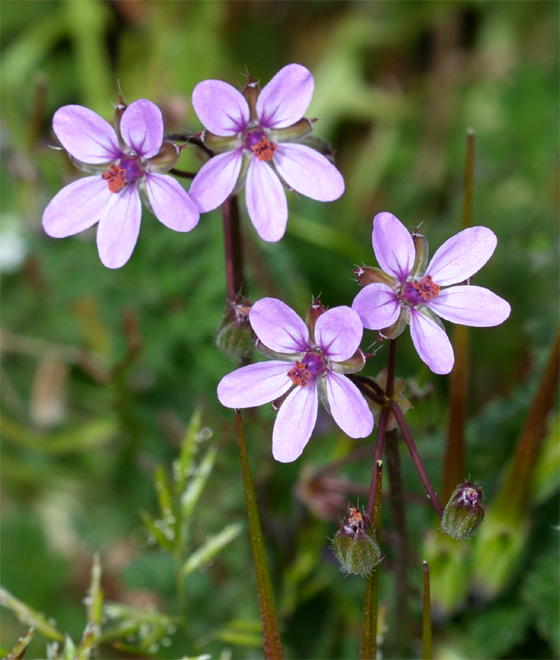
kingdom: Plantae
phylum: Tracheophyta
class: Magnoliopsida
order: Geraniales
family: Geraniaceae
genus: Erodium
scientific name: Erodium cicutarium
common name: Common stork's-bill
